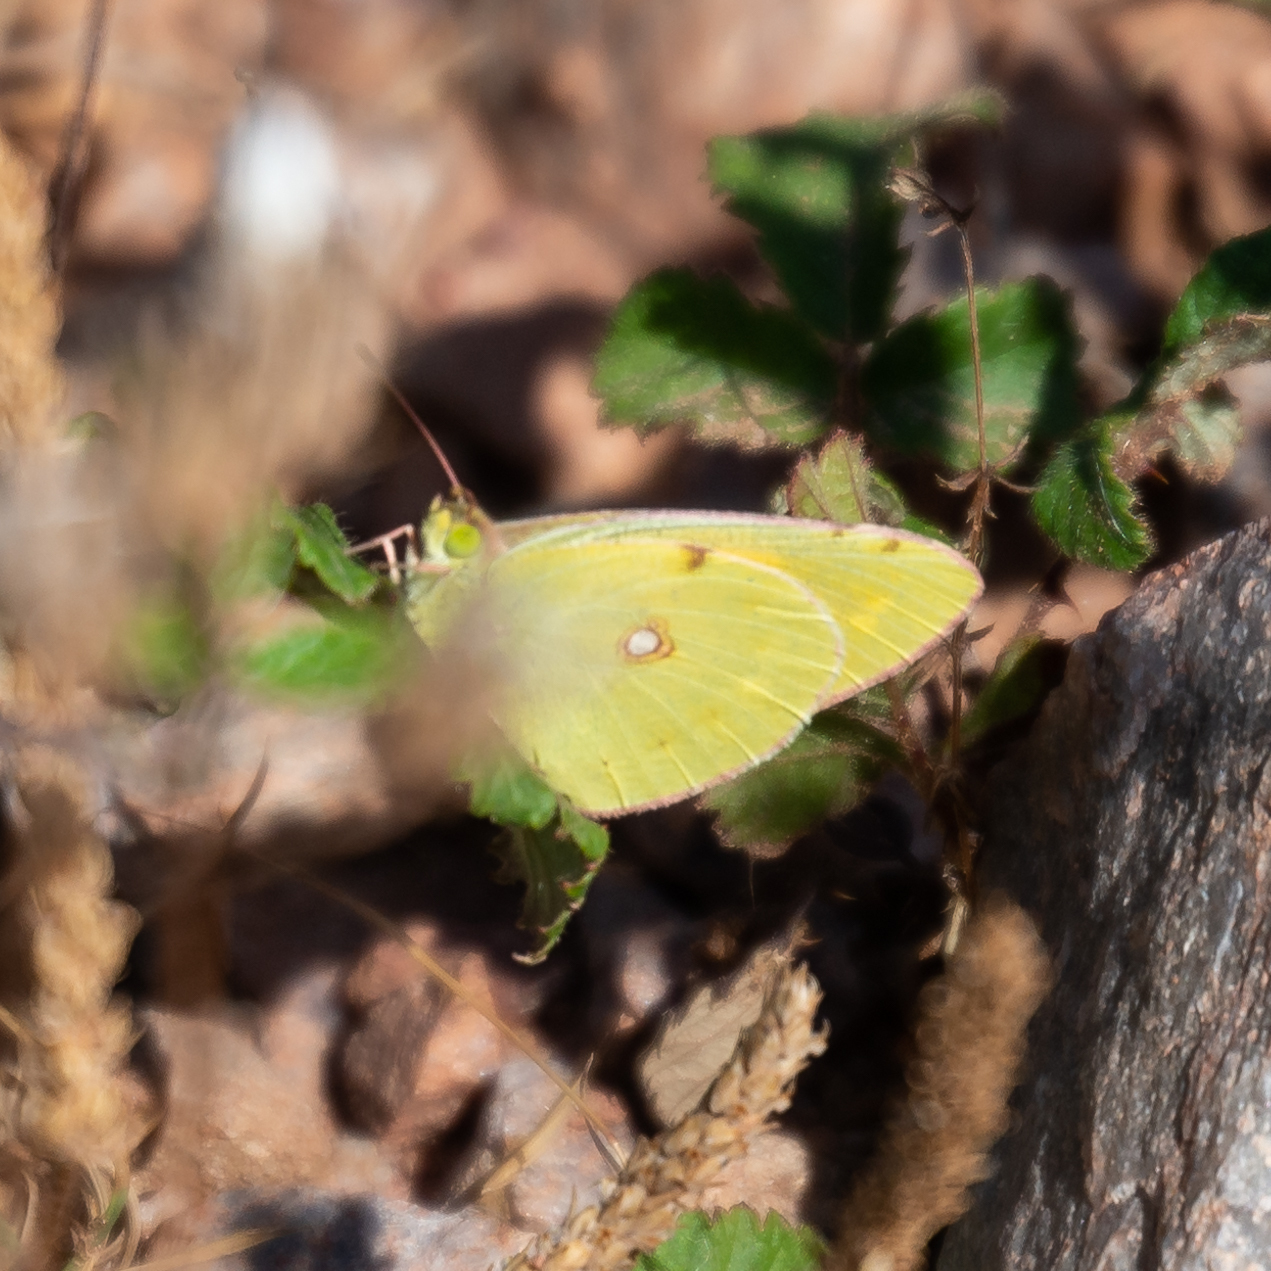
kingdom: Animalia
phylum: Arthropoda
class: Insecta
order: Lepidoptera
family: Pieridae
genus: Colias
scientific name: Colias croceus
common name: Clouded yellow
